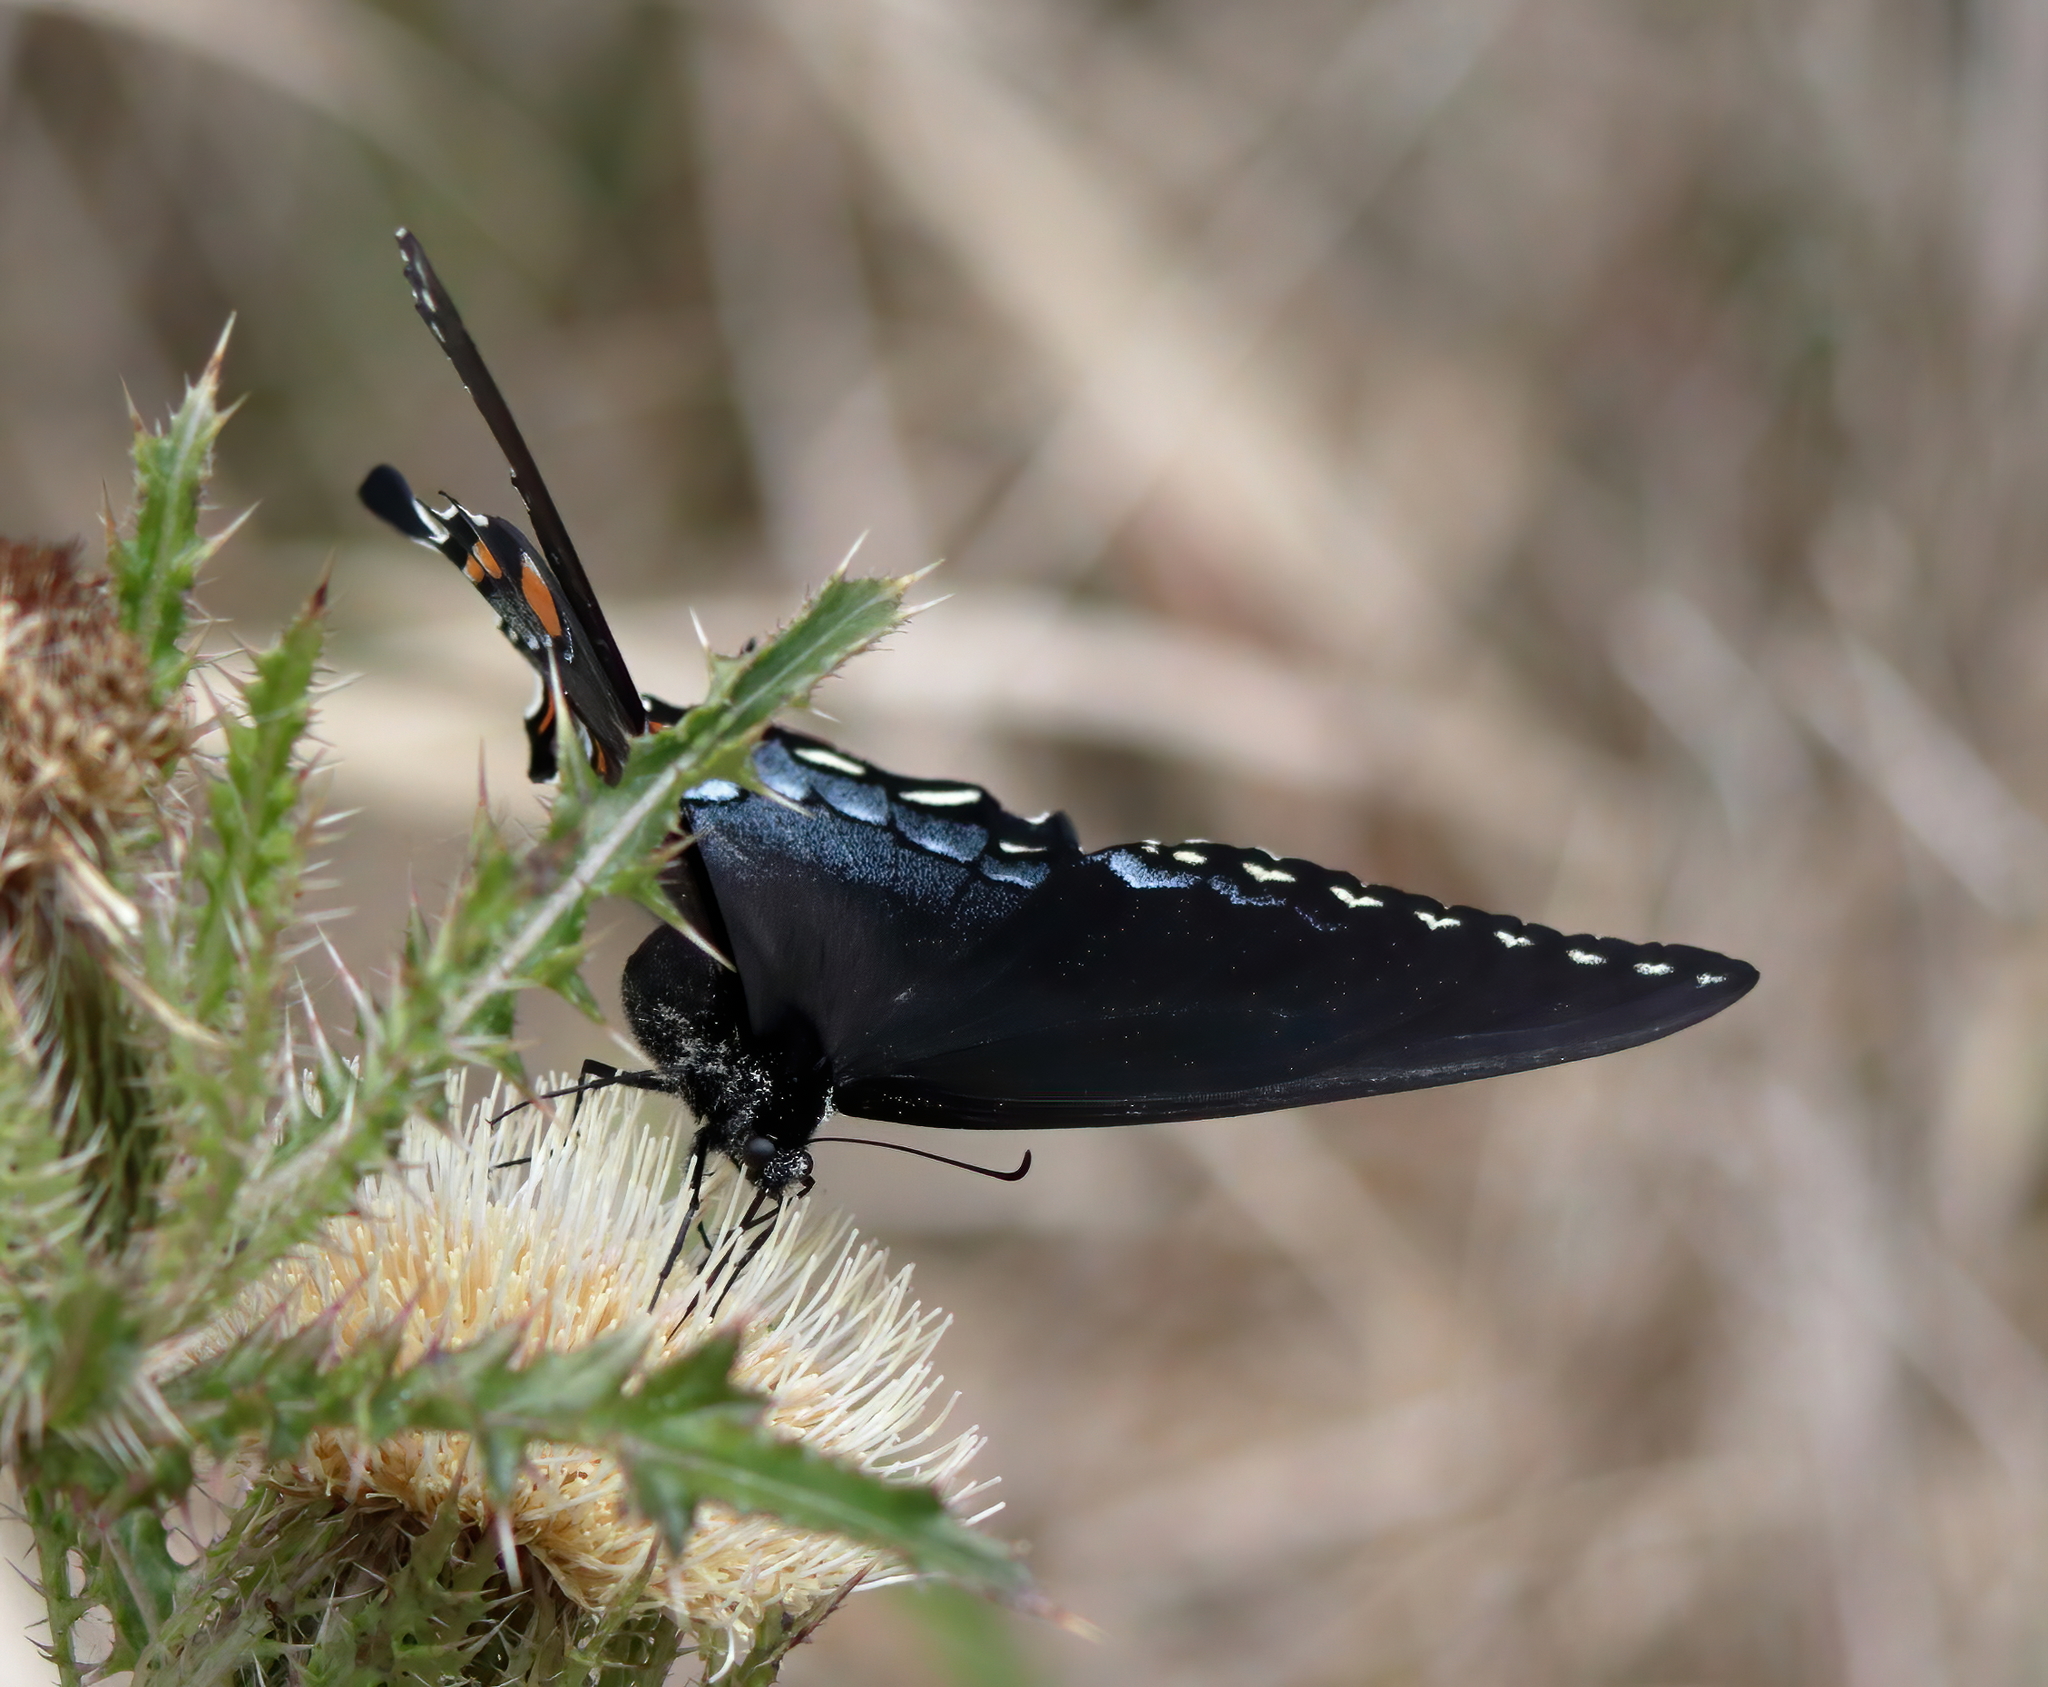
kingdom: Animalia
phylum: Arthropoda
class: Insecta
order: Lepidoptera
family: Papilionidae
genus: Papilio
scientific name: Papilio glaucus
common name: Tiger swallowtail
